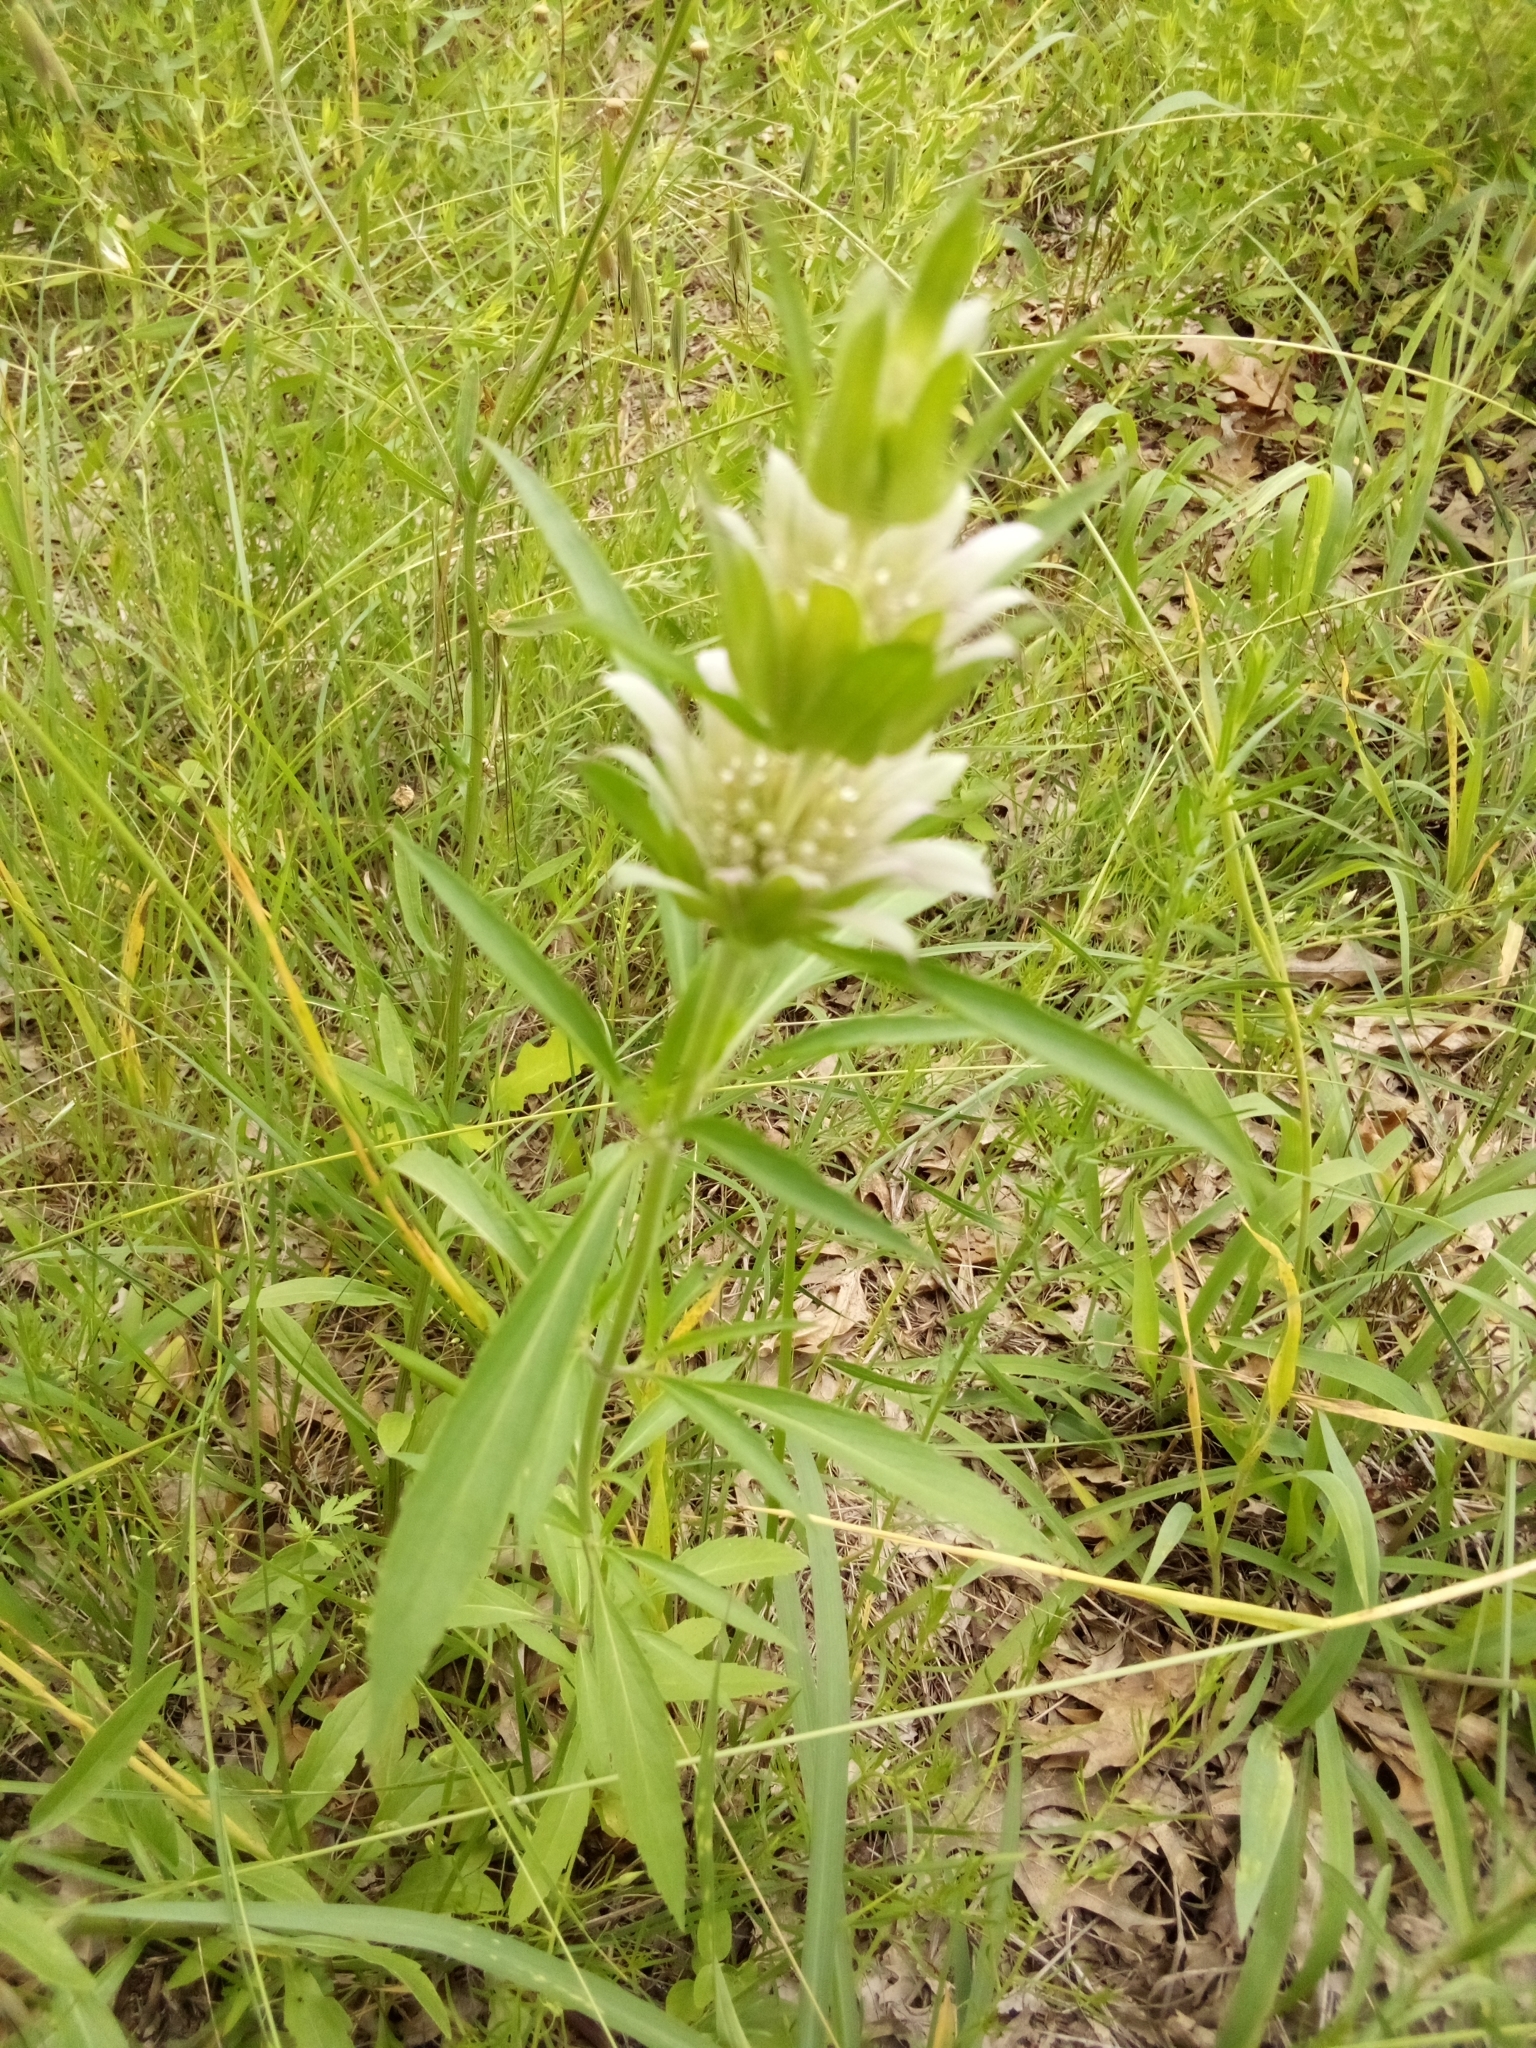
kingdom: Plantae
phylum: Tracheophyta
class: Magnoliopsida
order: Lamiales
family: Lamiaceae
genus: Monarda
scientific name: Monarda citriodora
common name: Lemon beebalm
